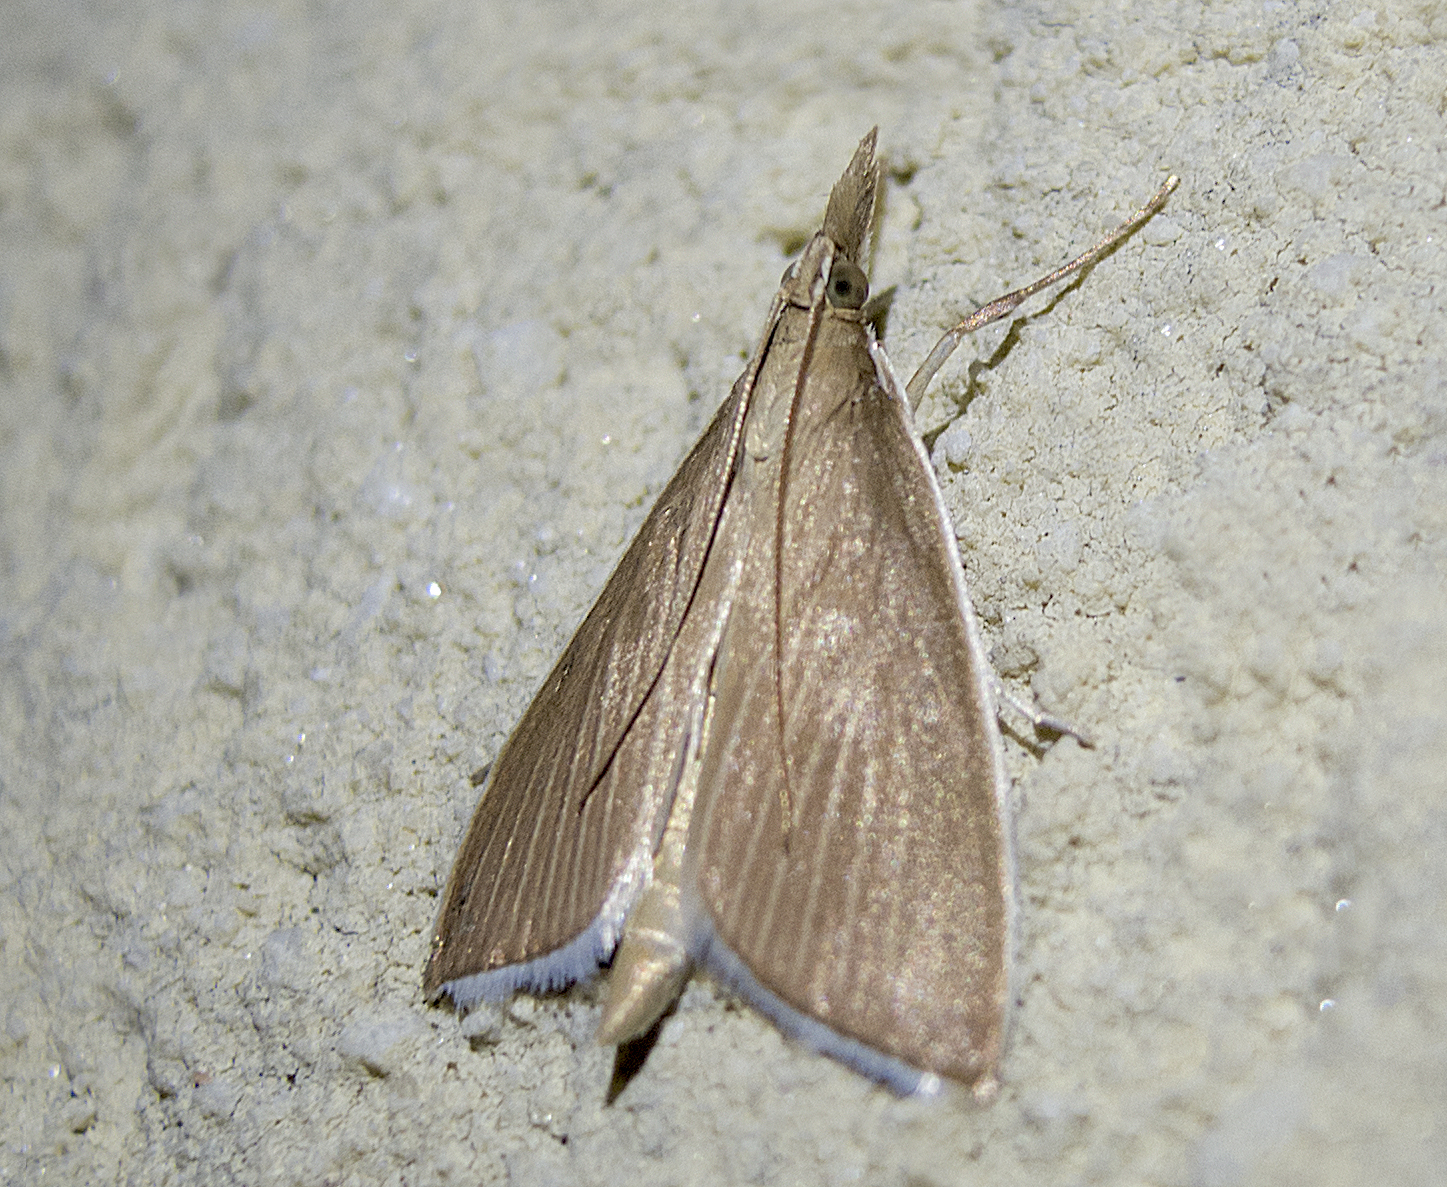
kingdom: Animalia
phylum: Arthropoda
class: Insecta
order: Lepidoptera
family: Crambidae
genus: Calamochrous
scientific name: Calamochrous Sclerocona acutella
